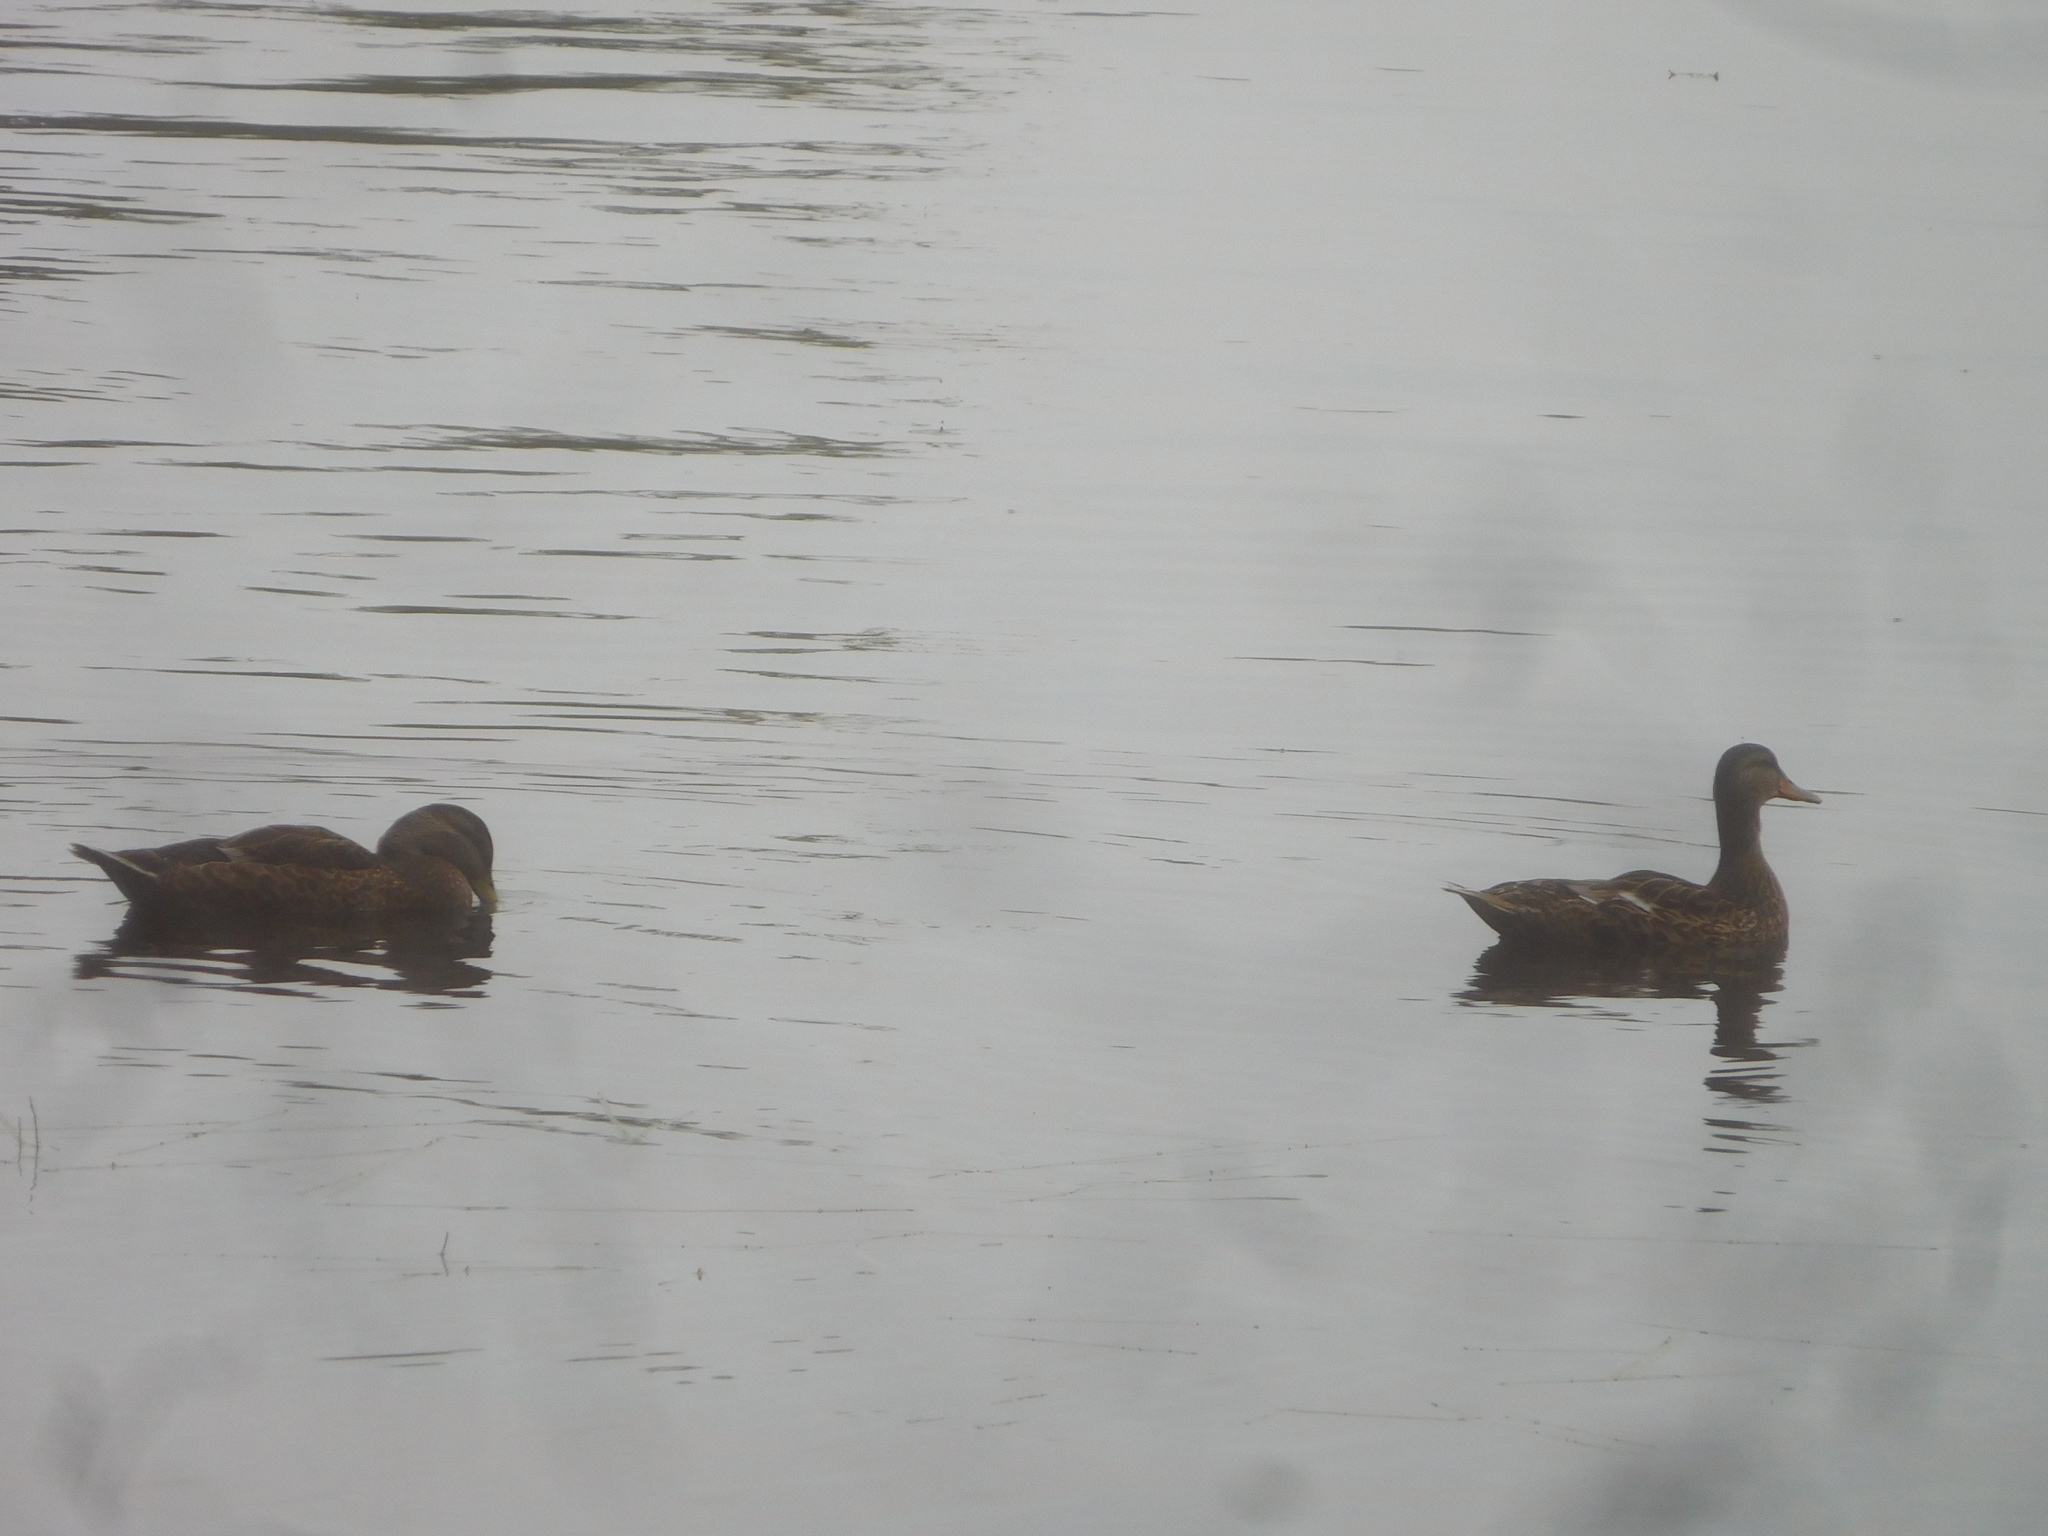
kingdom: Animalia
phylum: Chordata
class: Aves
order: Anseriformes
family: Anatidae
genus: Anas
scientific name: Anas platyrhynchos
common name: Mallard
